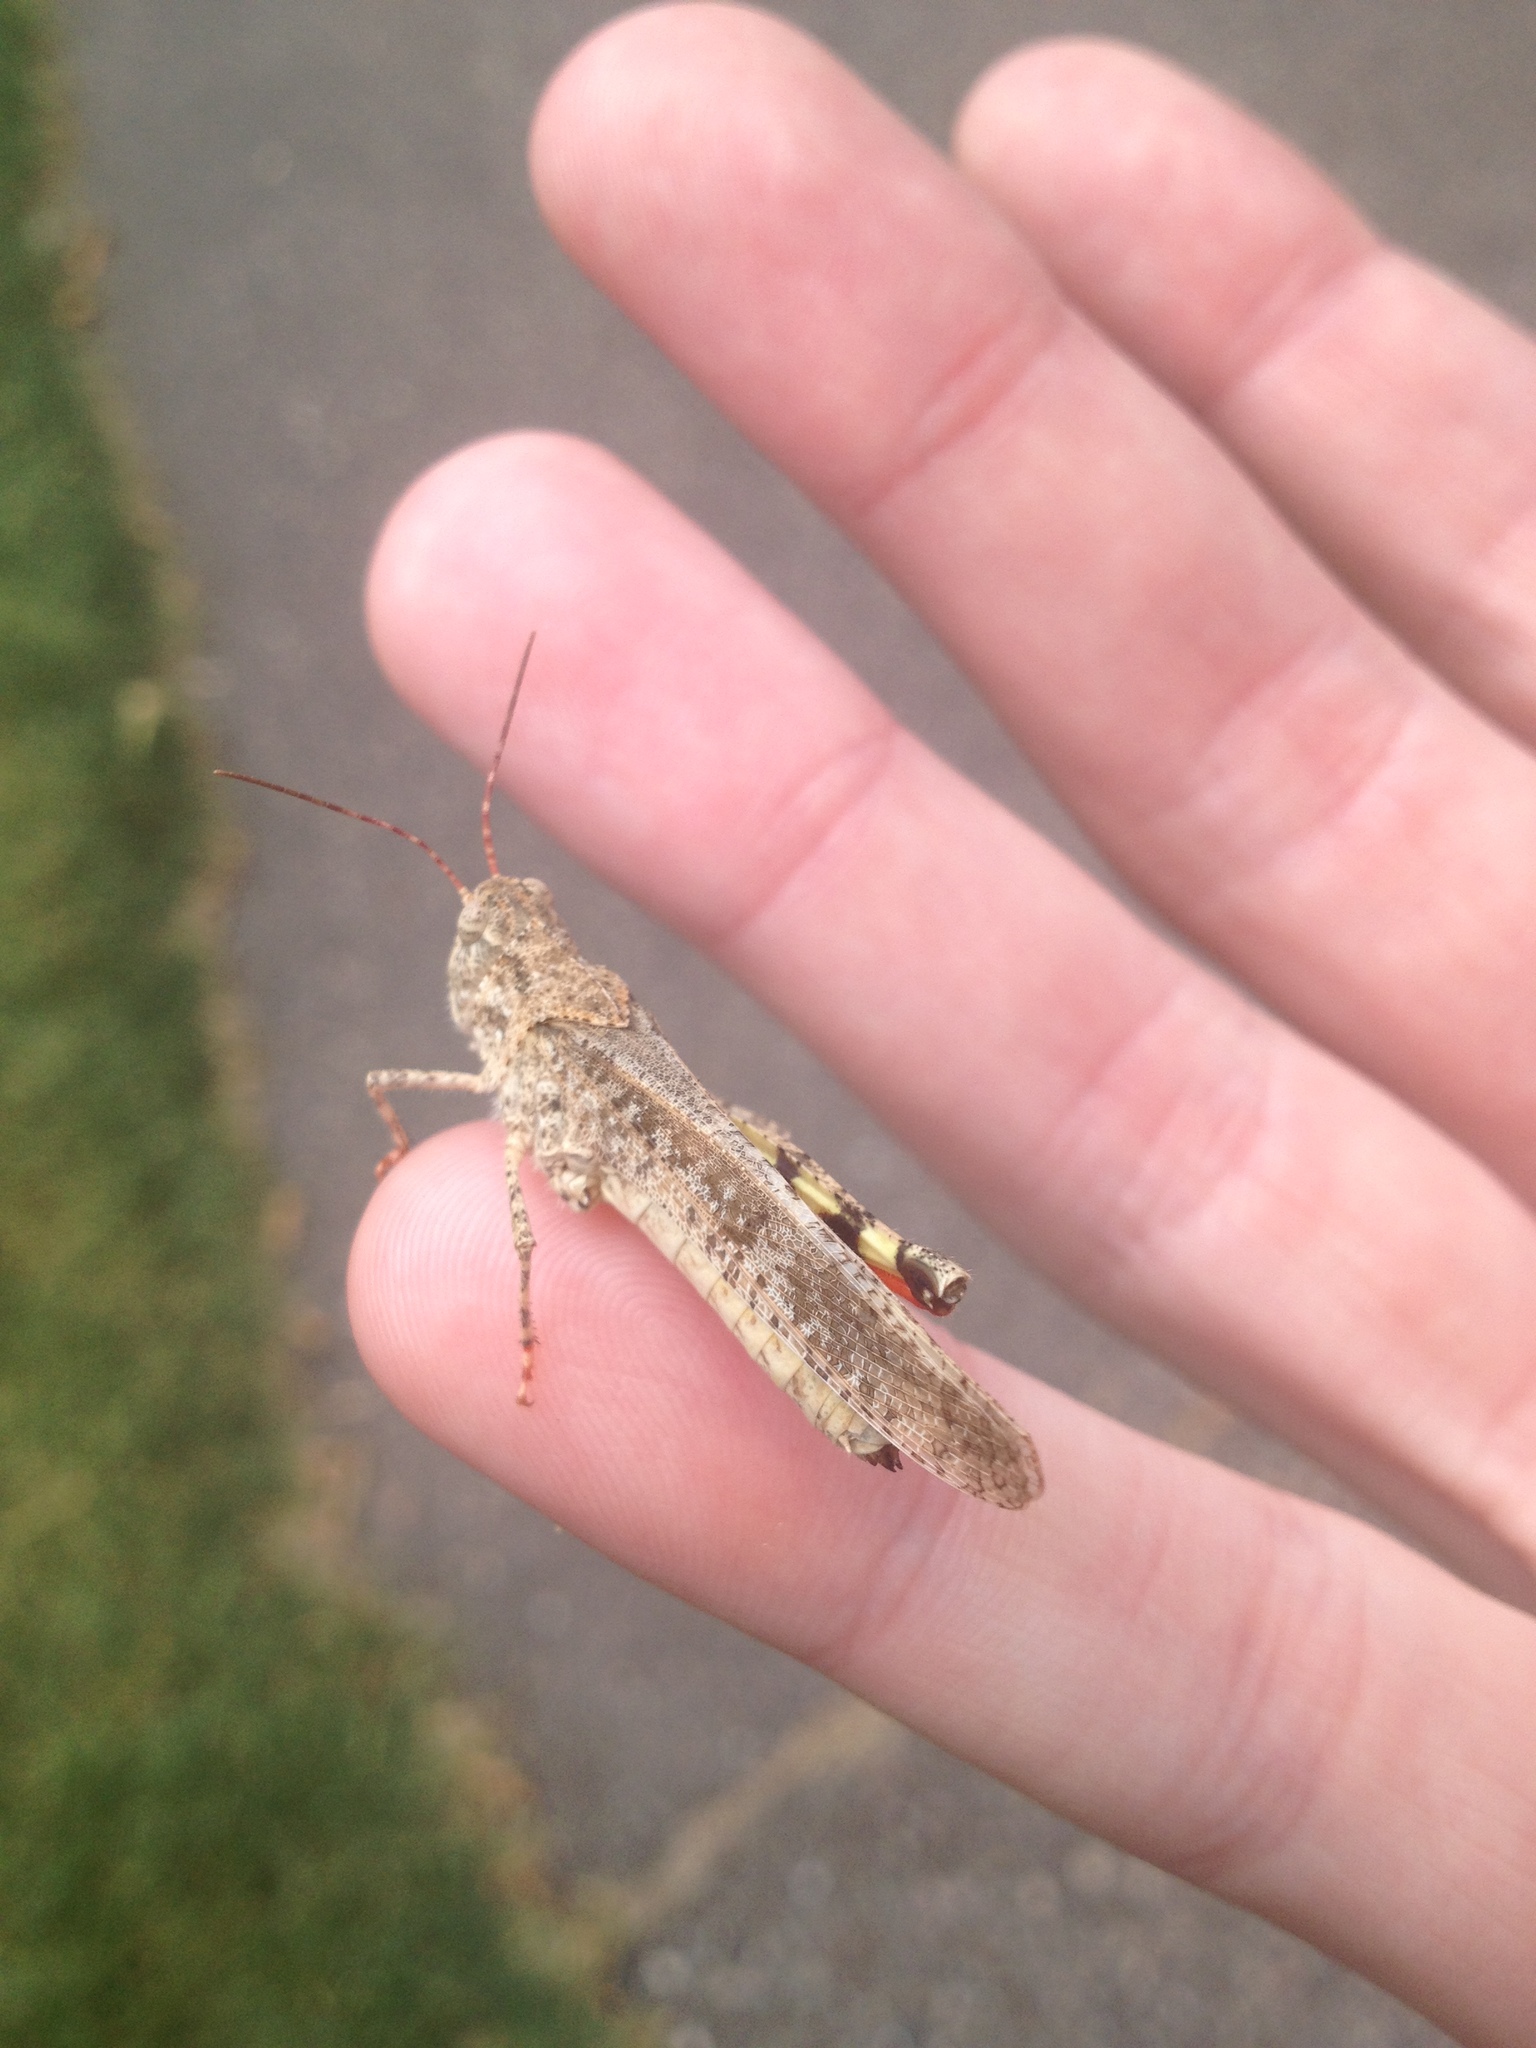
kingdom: Animalia
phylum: Arthropoda
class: Insecta
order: Orthoptera
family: Acrididae
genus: Spharagemon
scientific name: Spharagemon collare
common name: Mottled sand grasshopper
